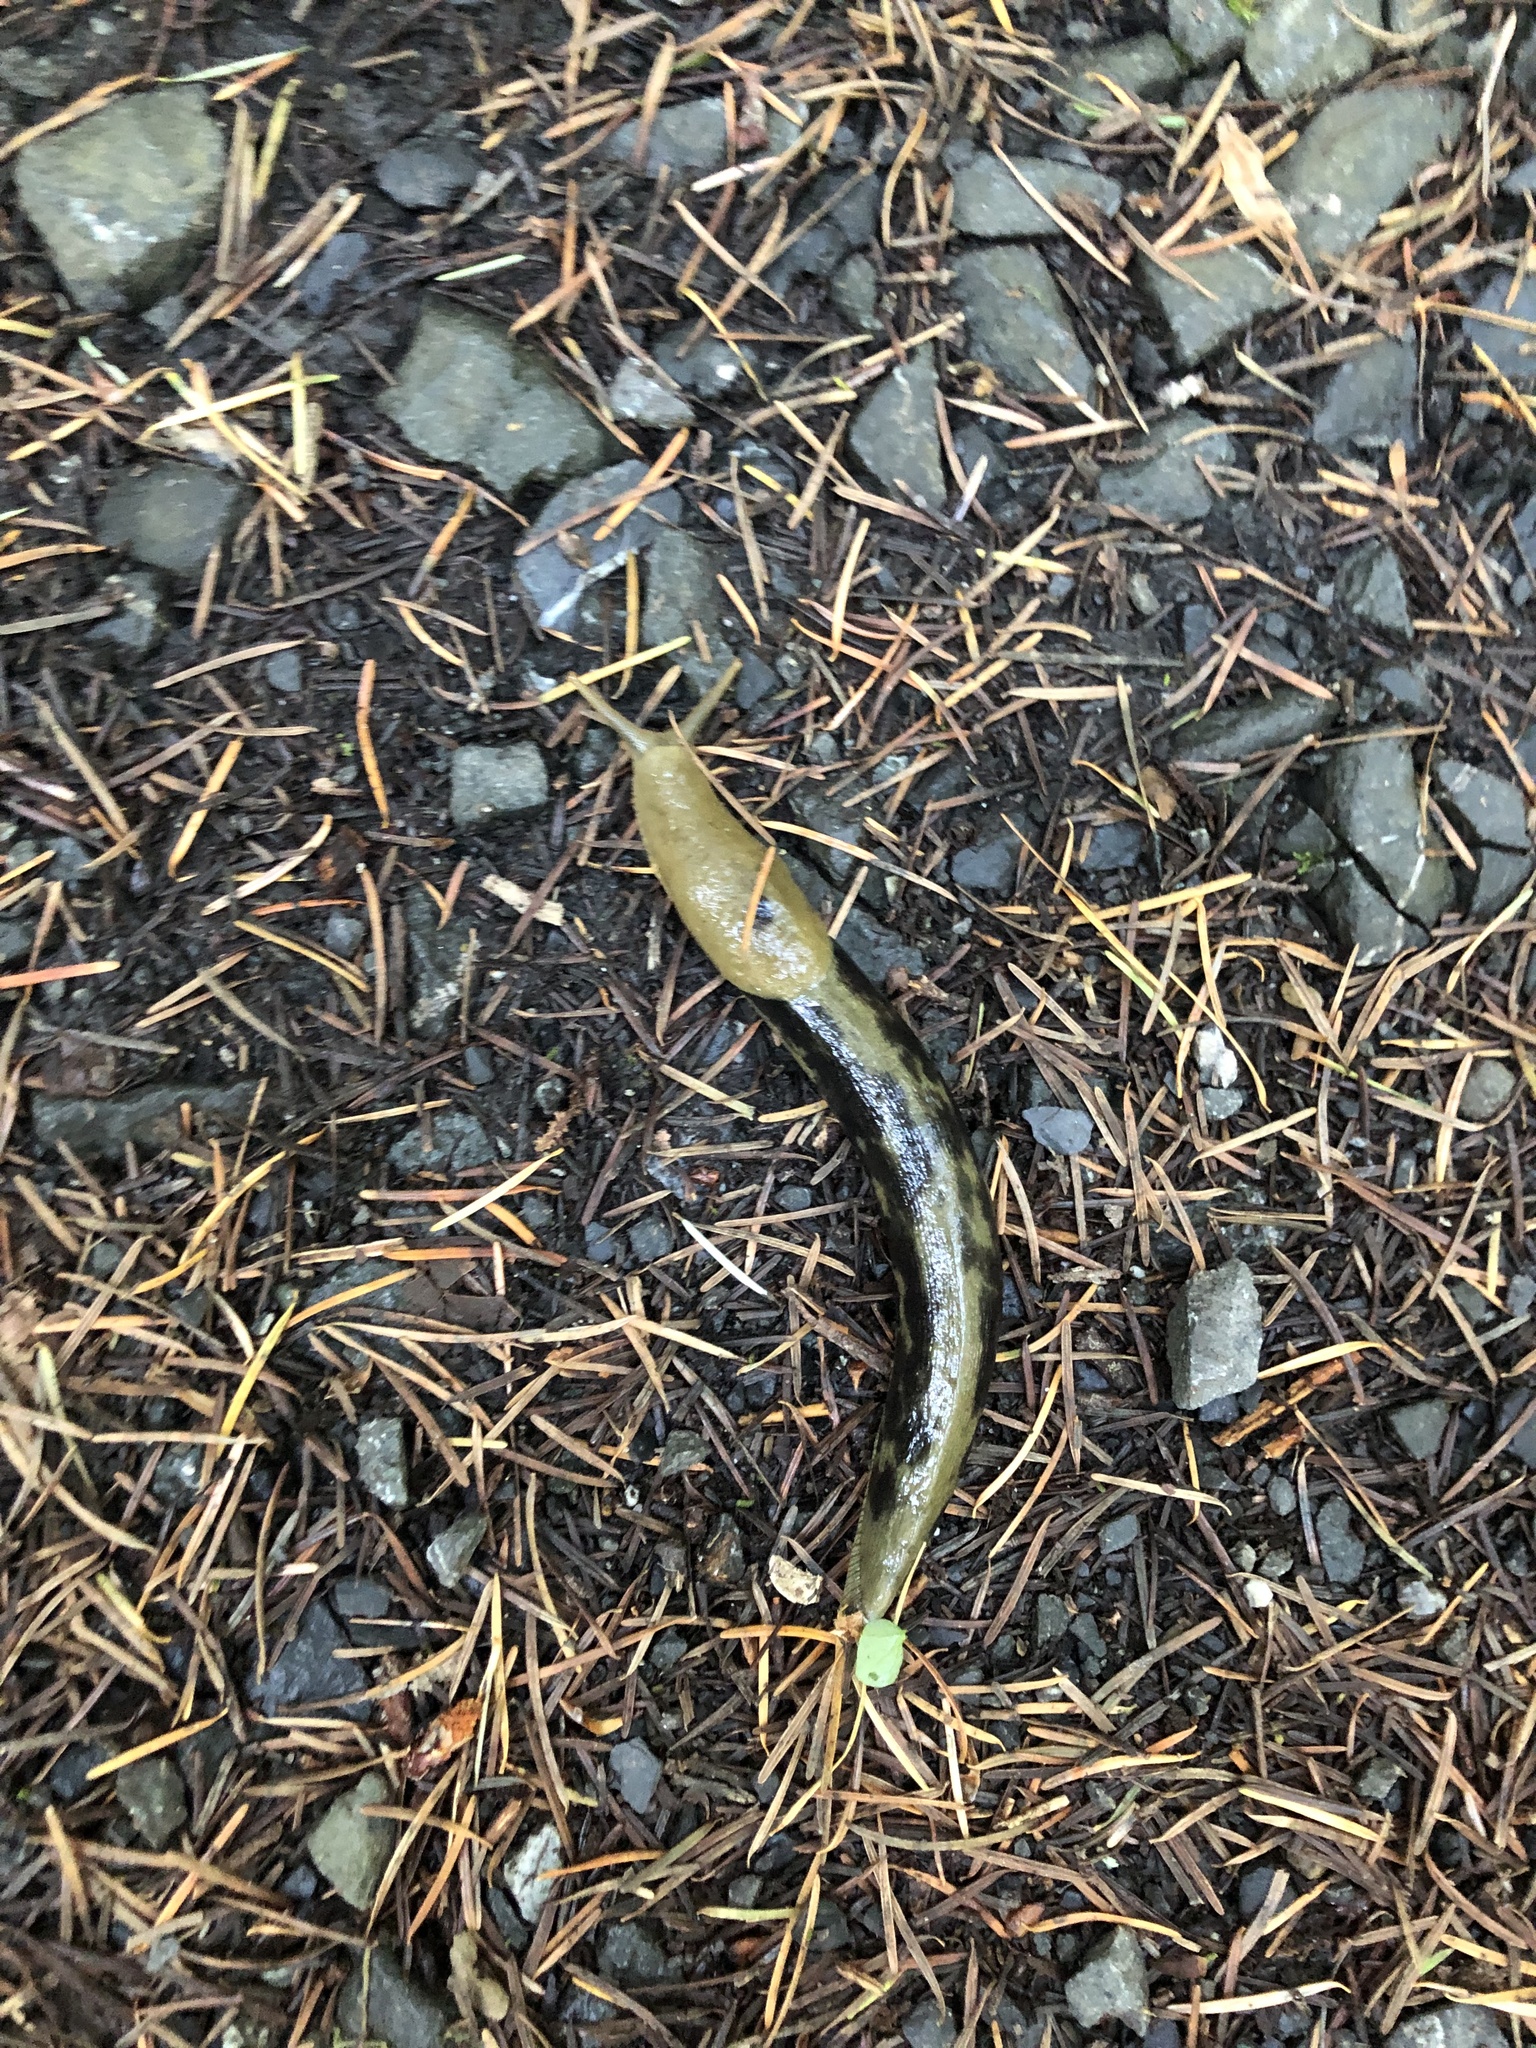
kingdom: Animalia
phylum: Mollusca
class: Gastropoda
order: Stylommatophora
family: Ariolimacidae
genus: Ariolimax
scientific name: Ariolimax columbianus
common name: Pacific banana slug
